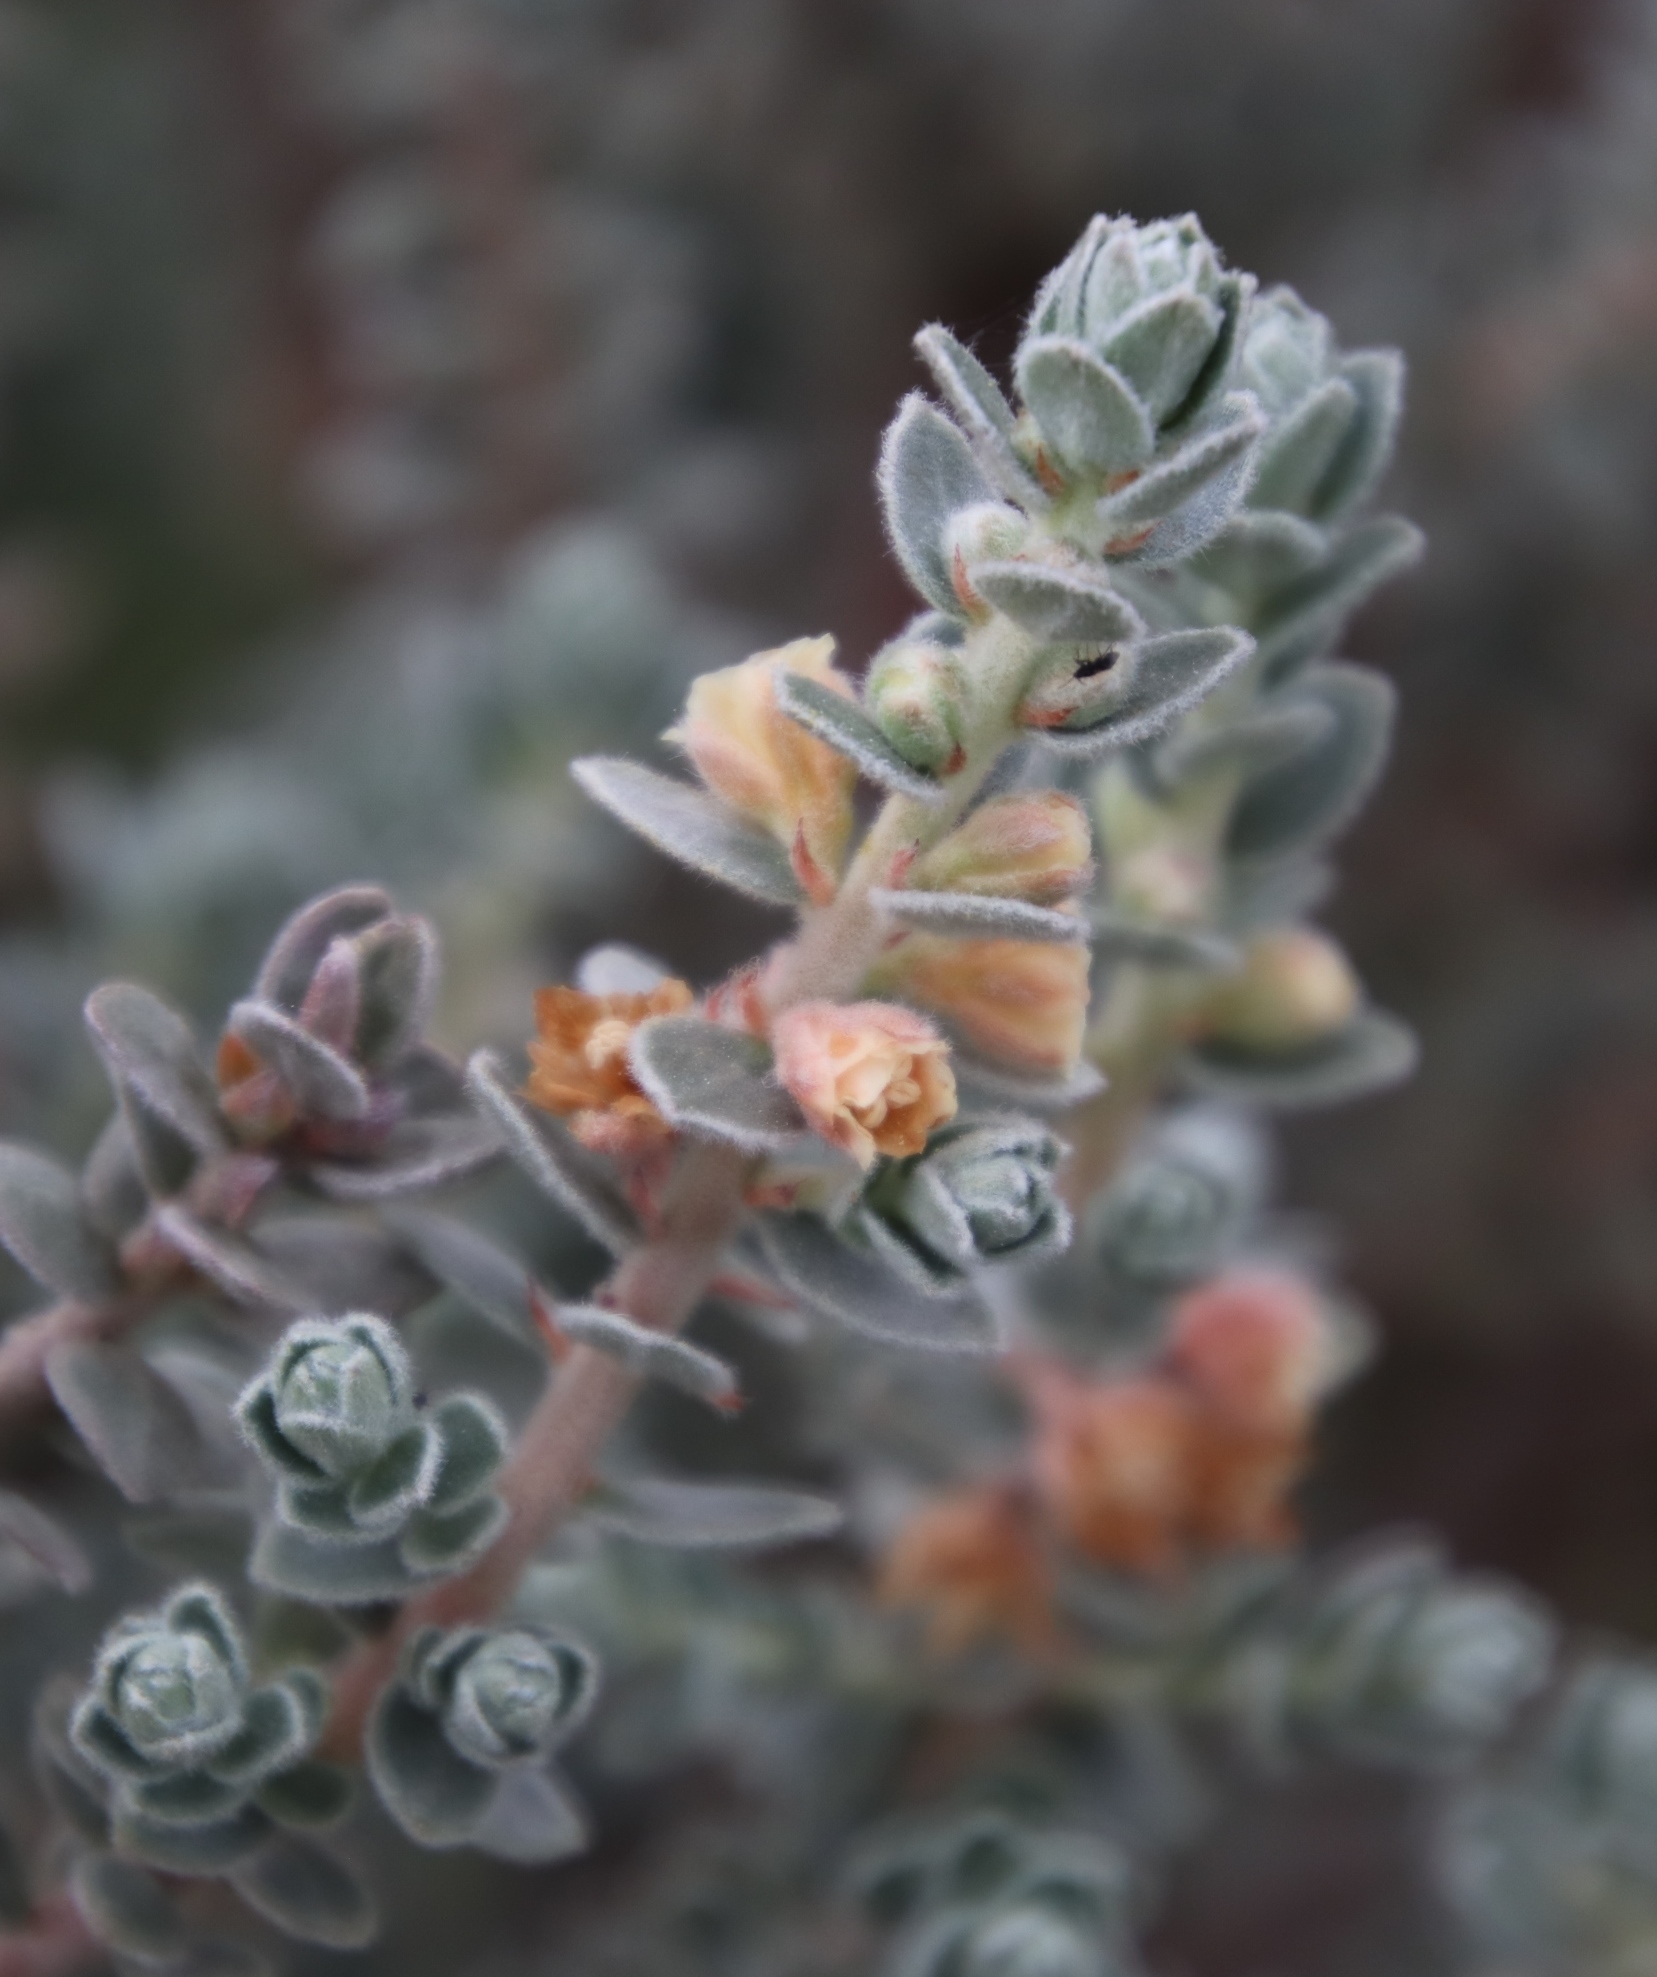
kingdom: Plantae
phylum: Tracheophyta
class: Magnoliopsida
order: Malpighiales
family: Peraceae
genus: Clutia
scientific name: Clutia tomentosa
